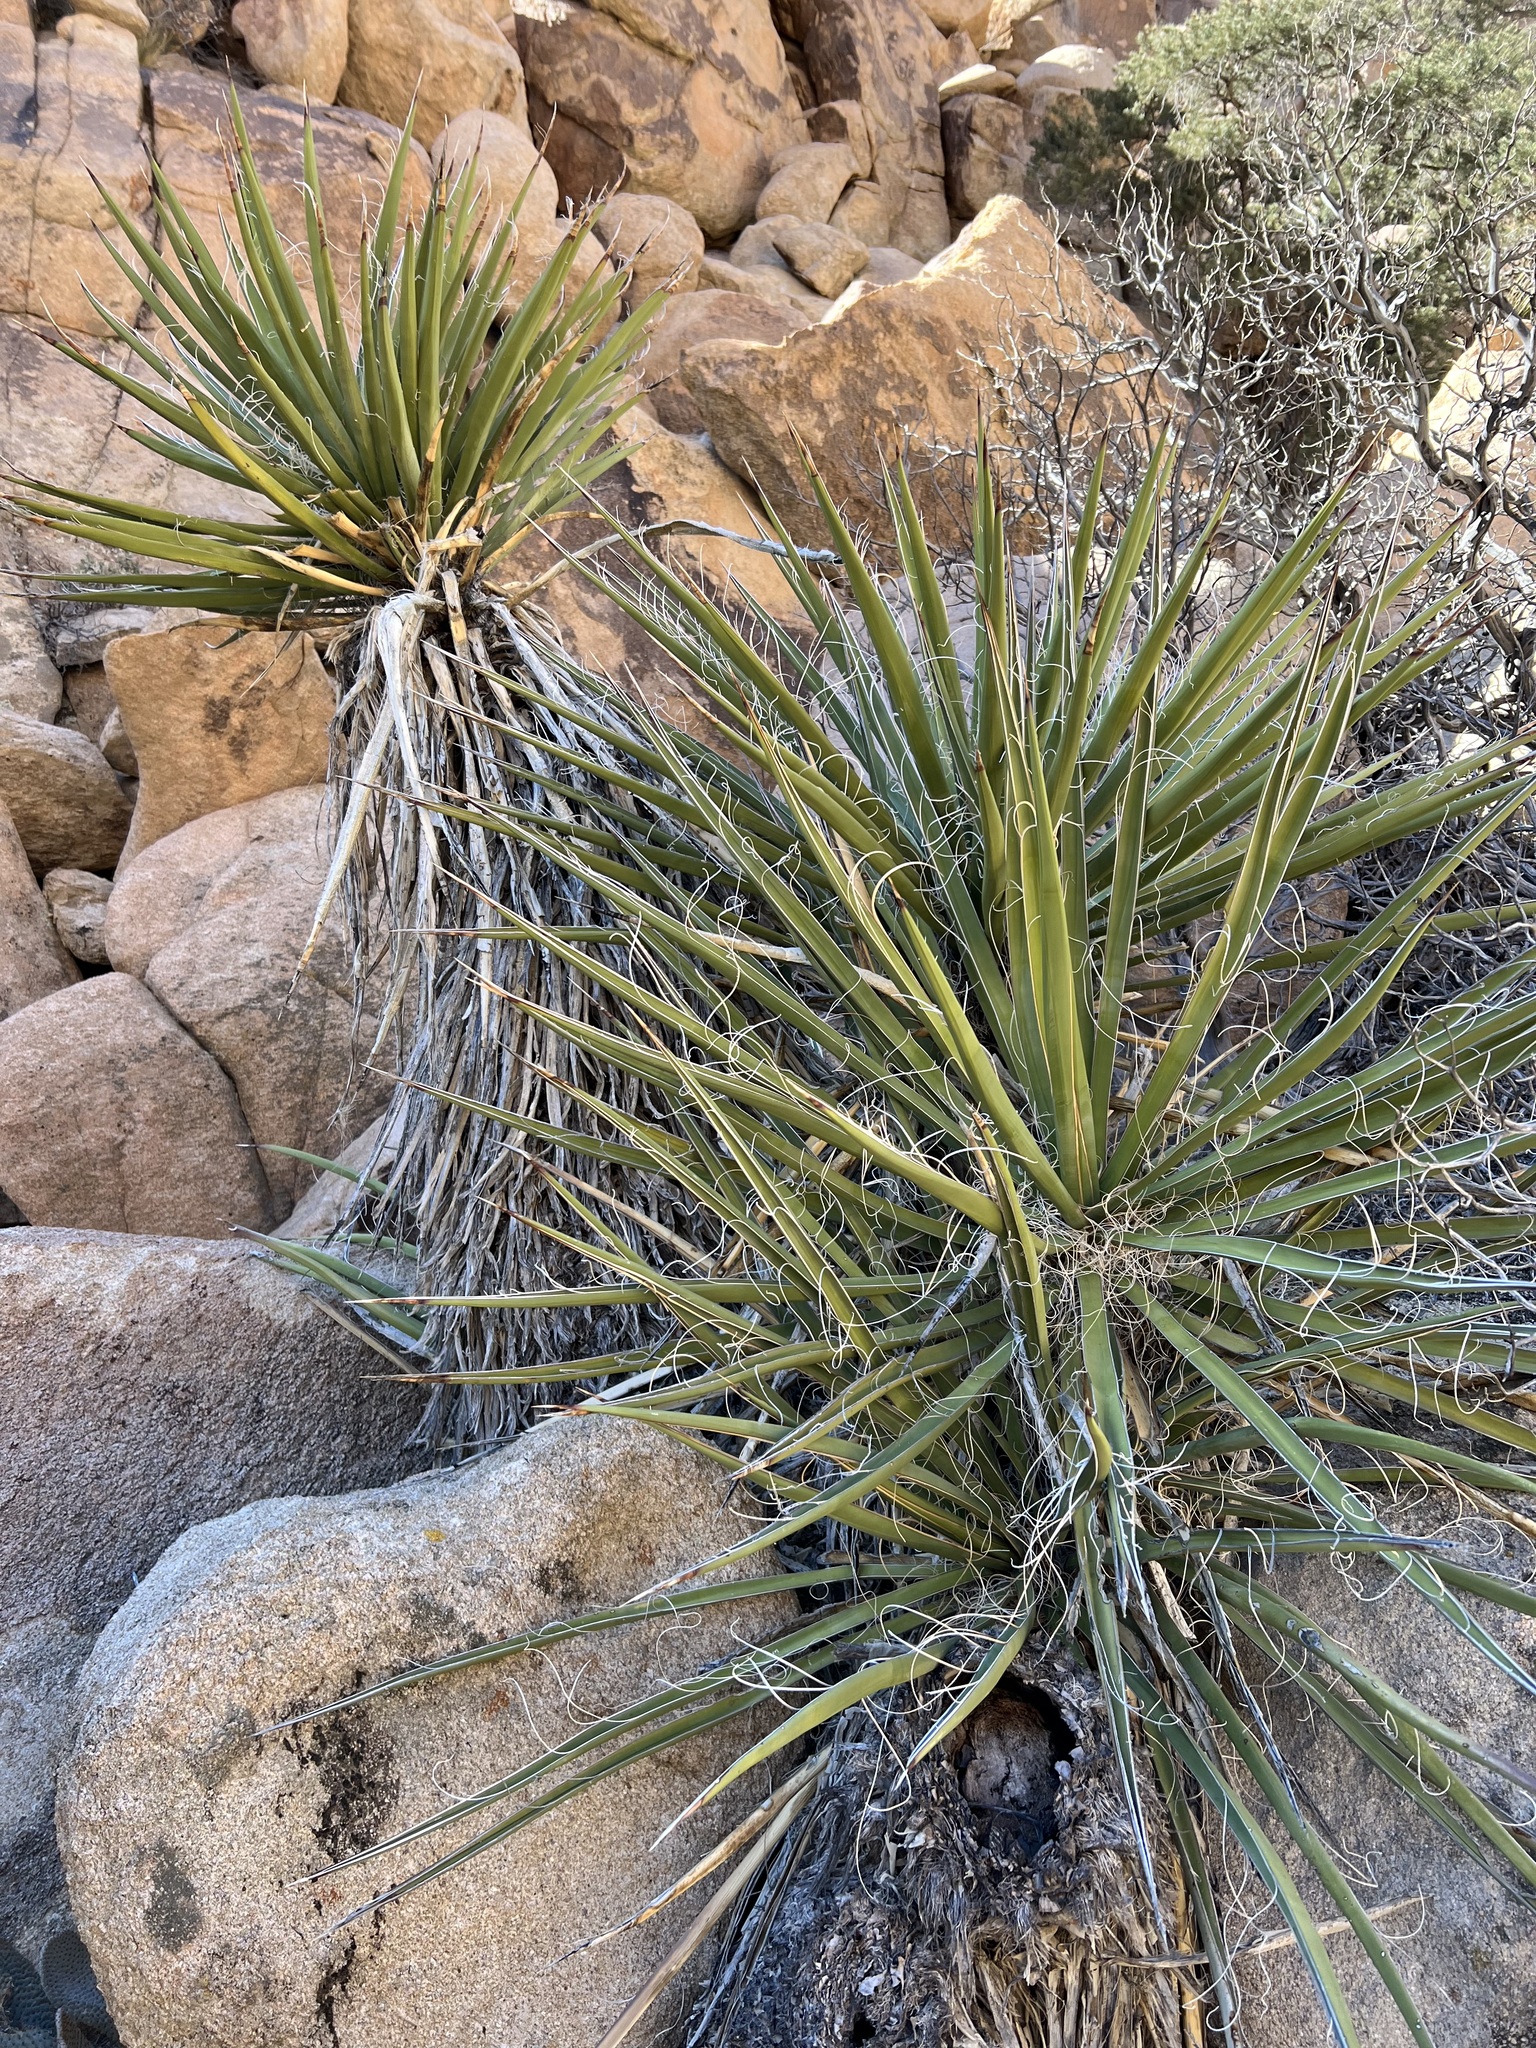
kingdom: Plantae
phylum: Tracheophyta
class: Liliopsida
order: Asparagales
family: Asparagaceae
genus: Yucca
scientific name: Yucca schidigera
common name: Mojave yucca
